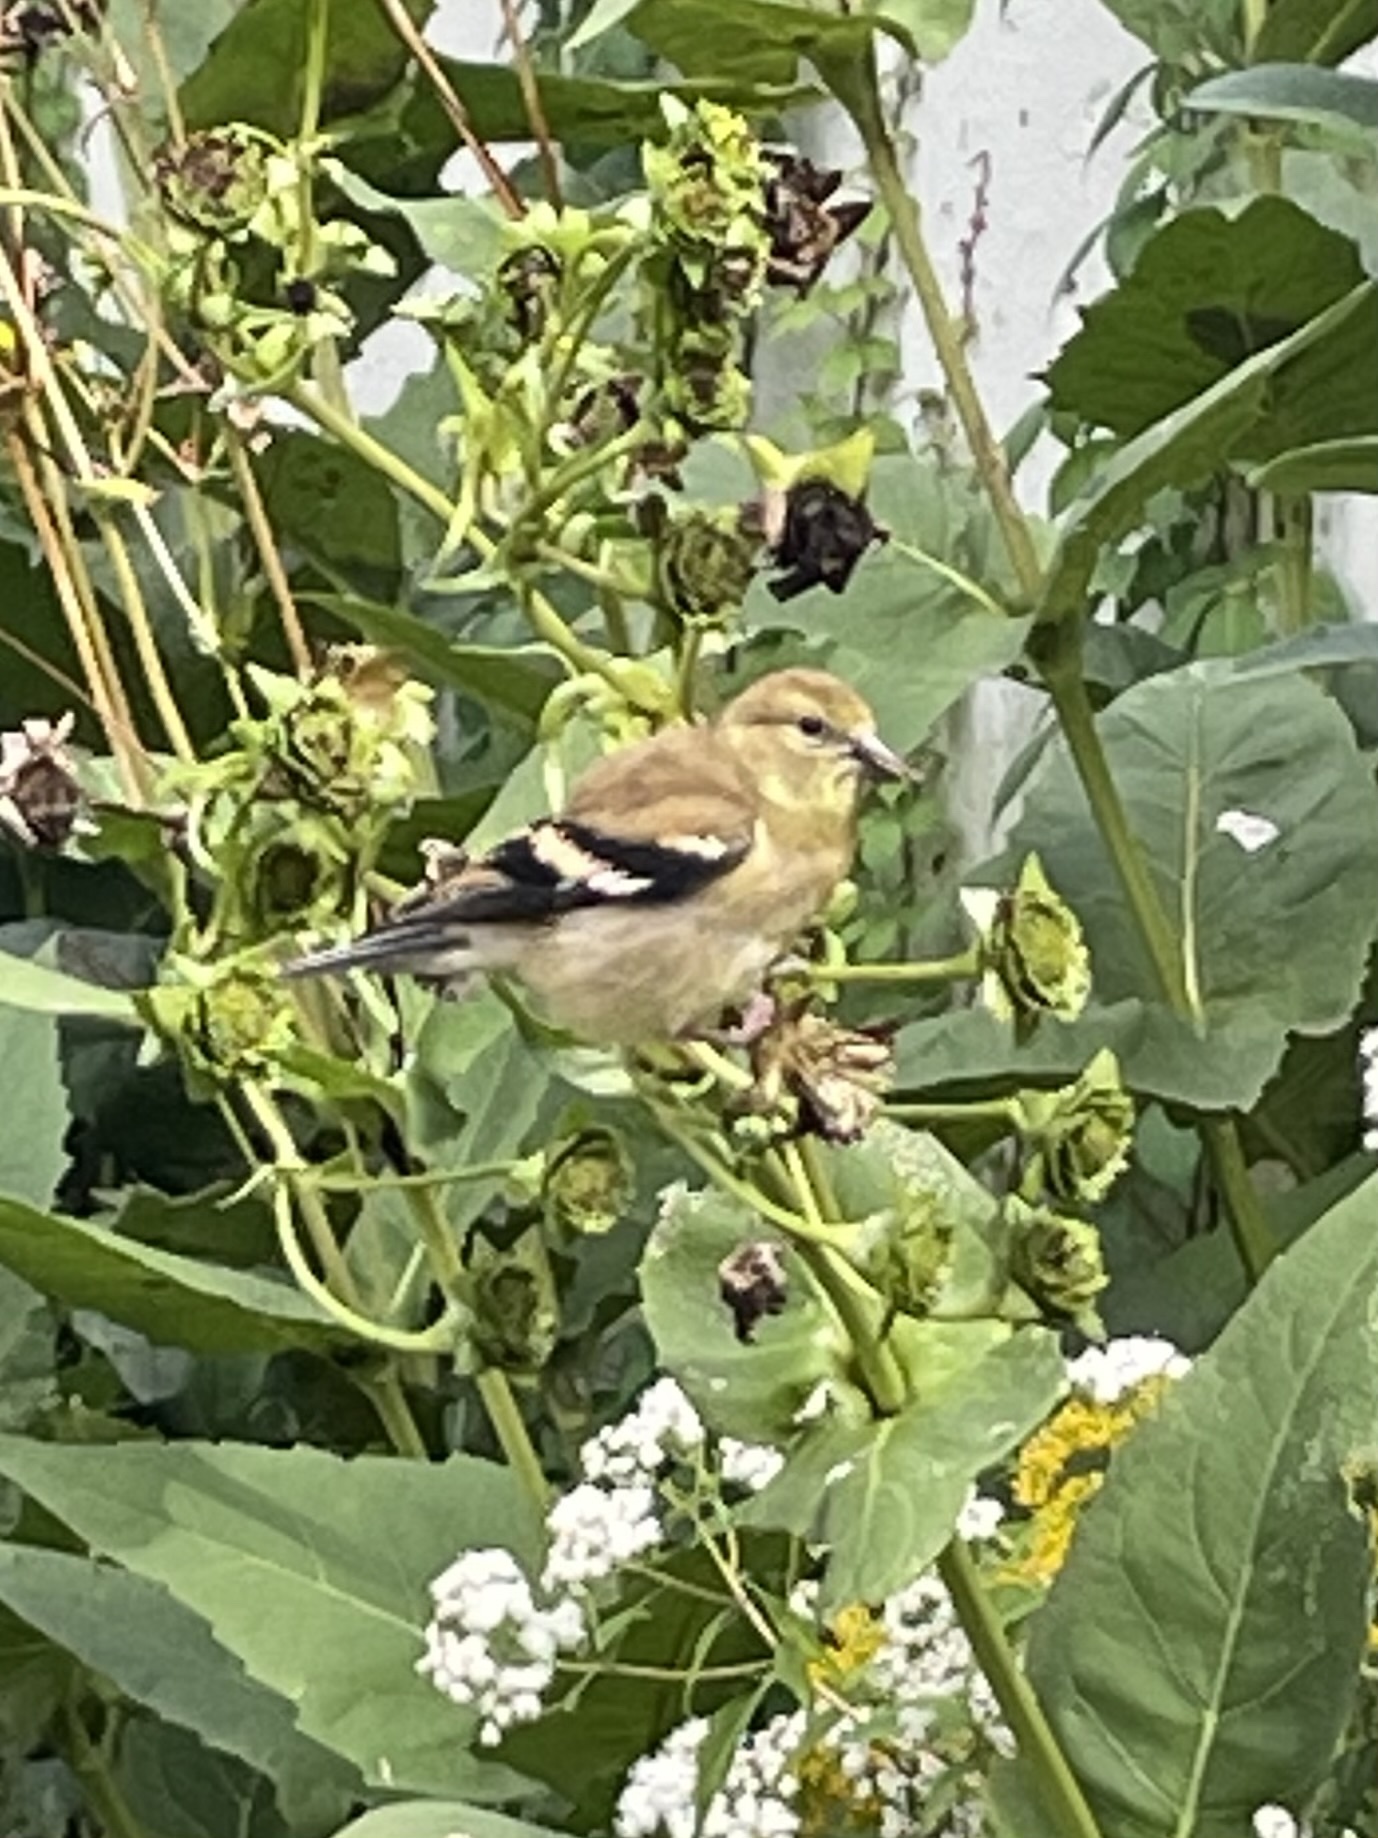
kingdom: Animalia
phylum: Chordata
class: Aves
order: Passeriformes
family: Fringillidae
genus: Spinus
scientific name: Spinus tristis
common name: American goldfinch
